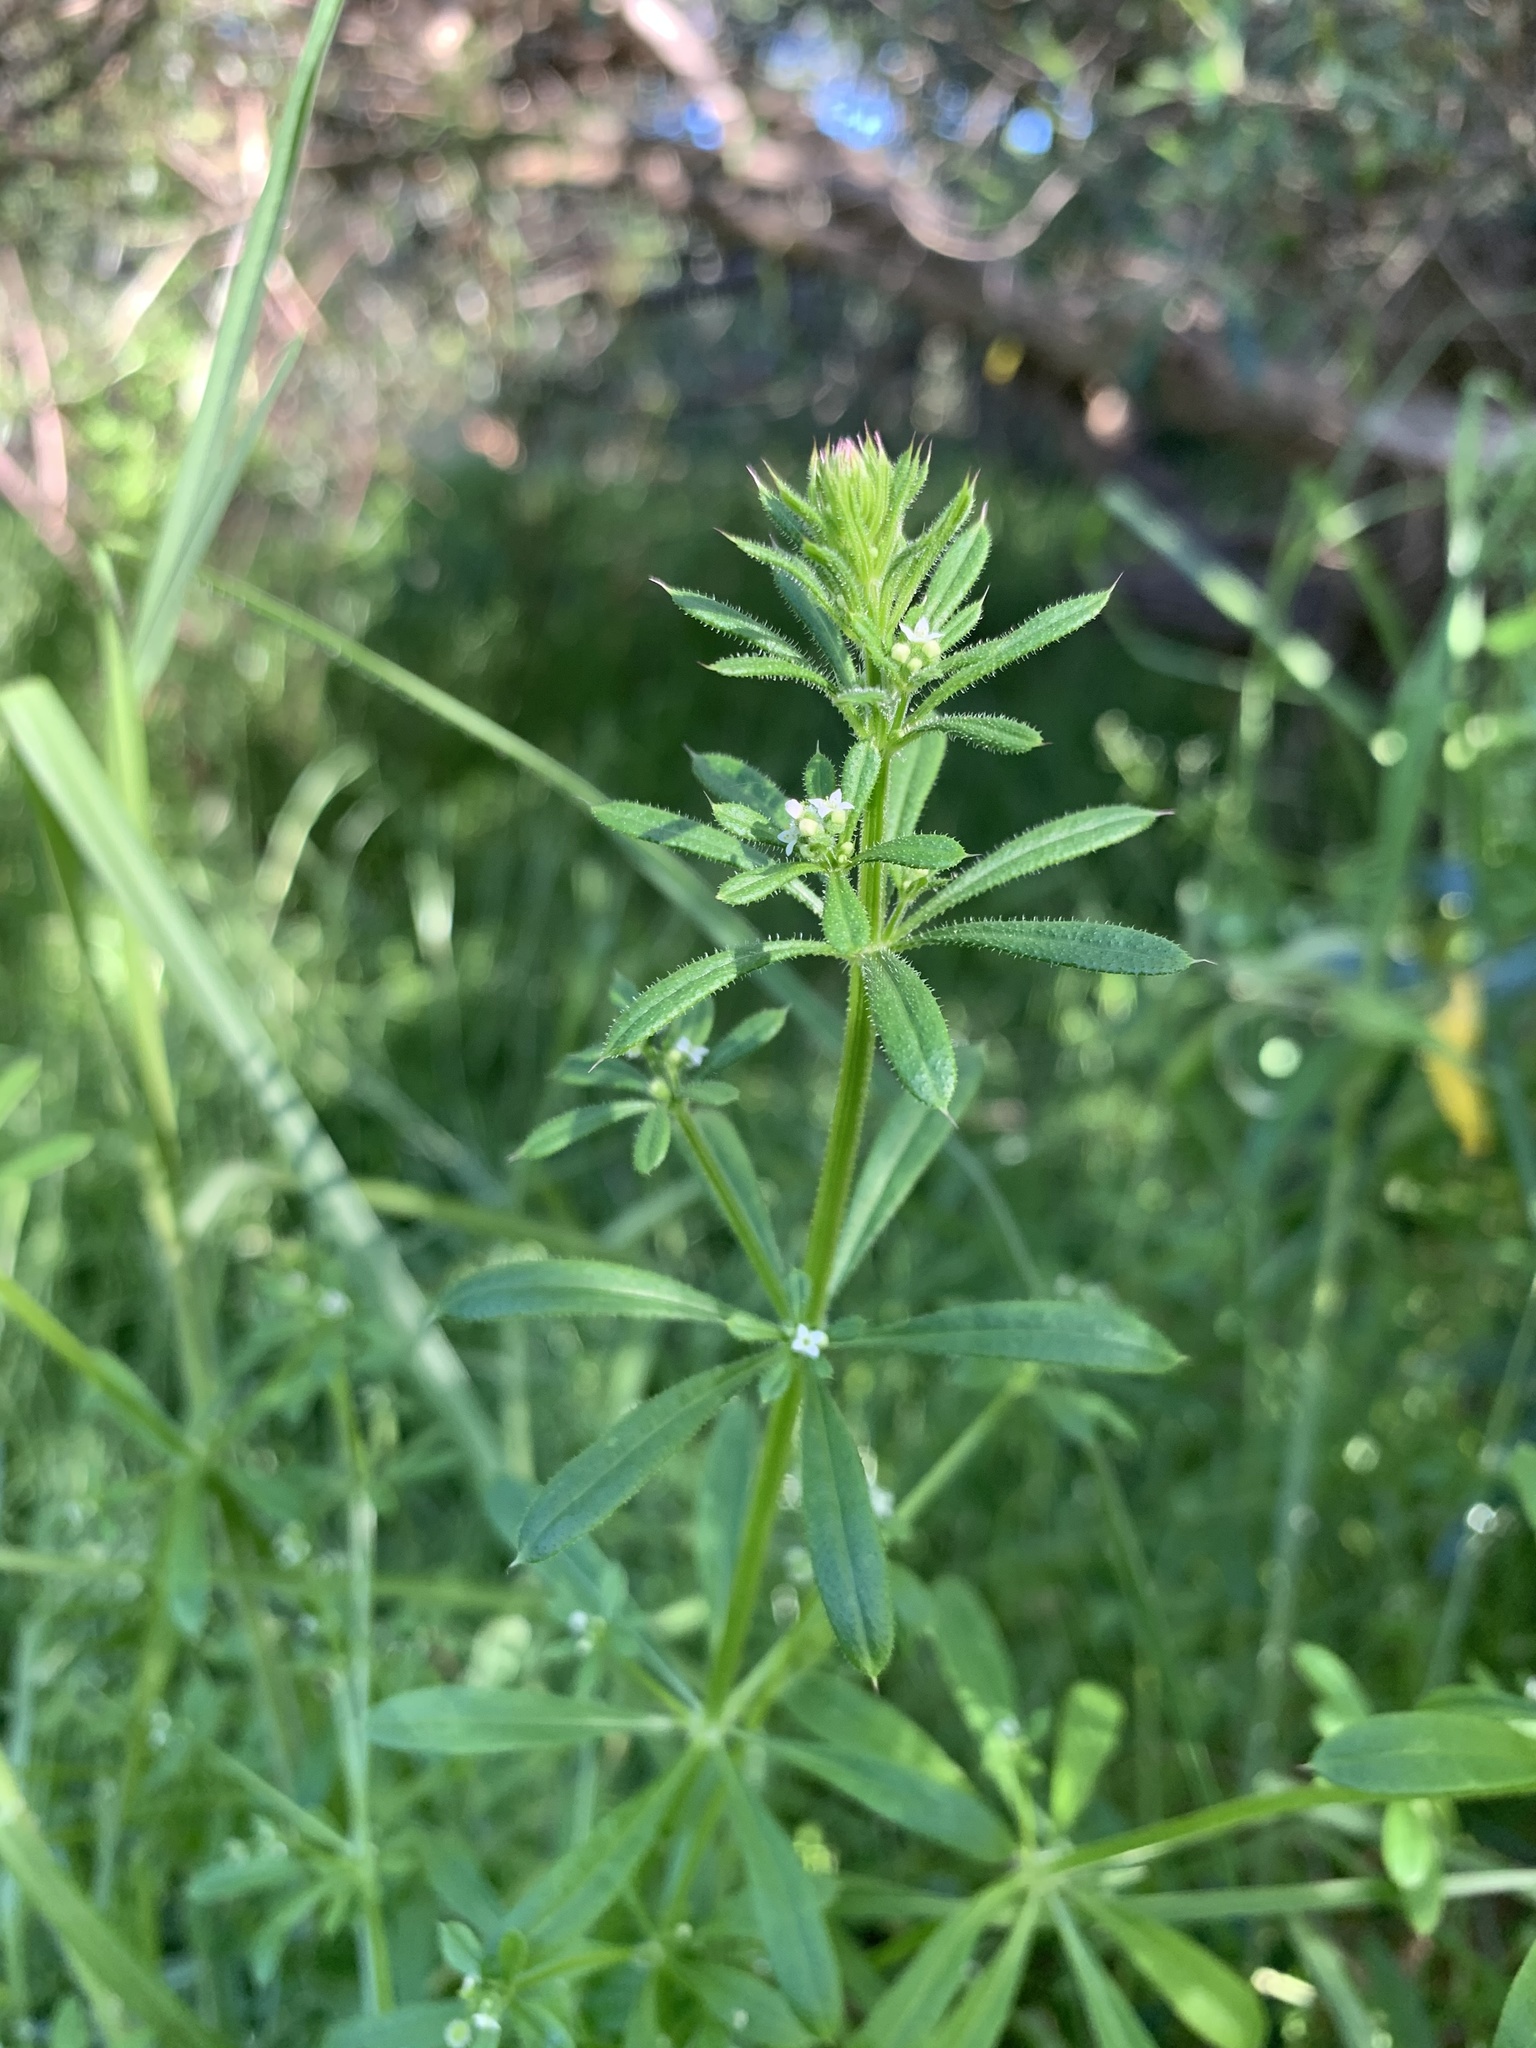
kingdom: Plantae
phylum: Tracheophyta
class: Magnoliopsida
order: Gentianales
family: Rubiaceae
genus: Galium
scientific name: Galium aparine
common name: Cleavers
